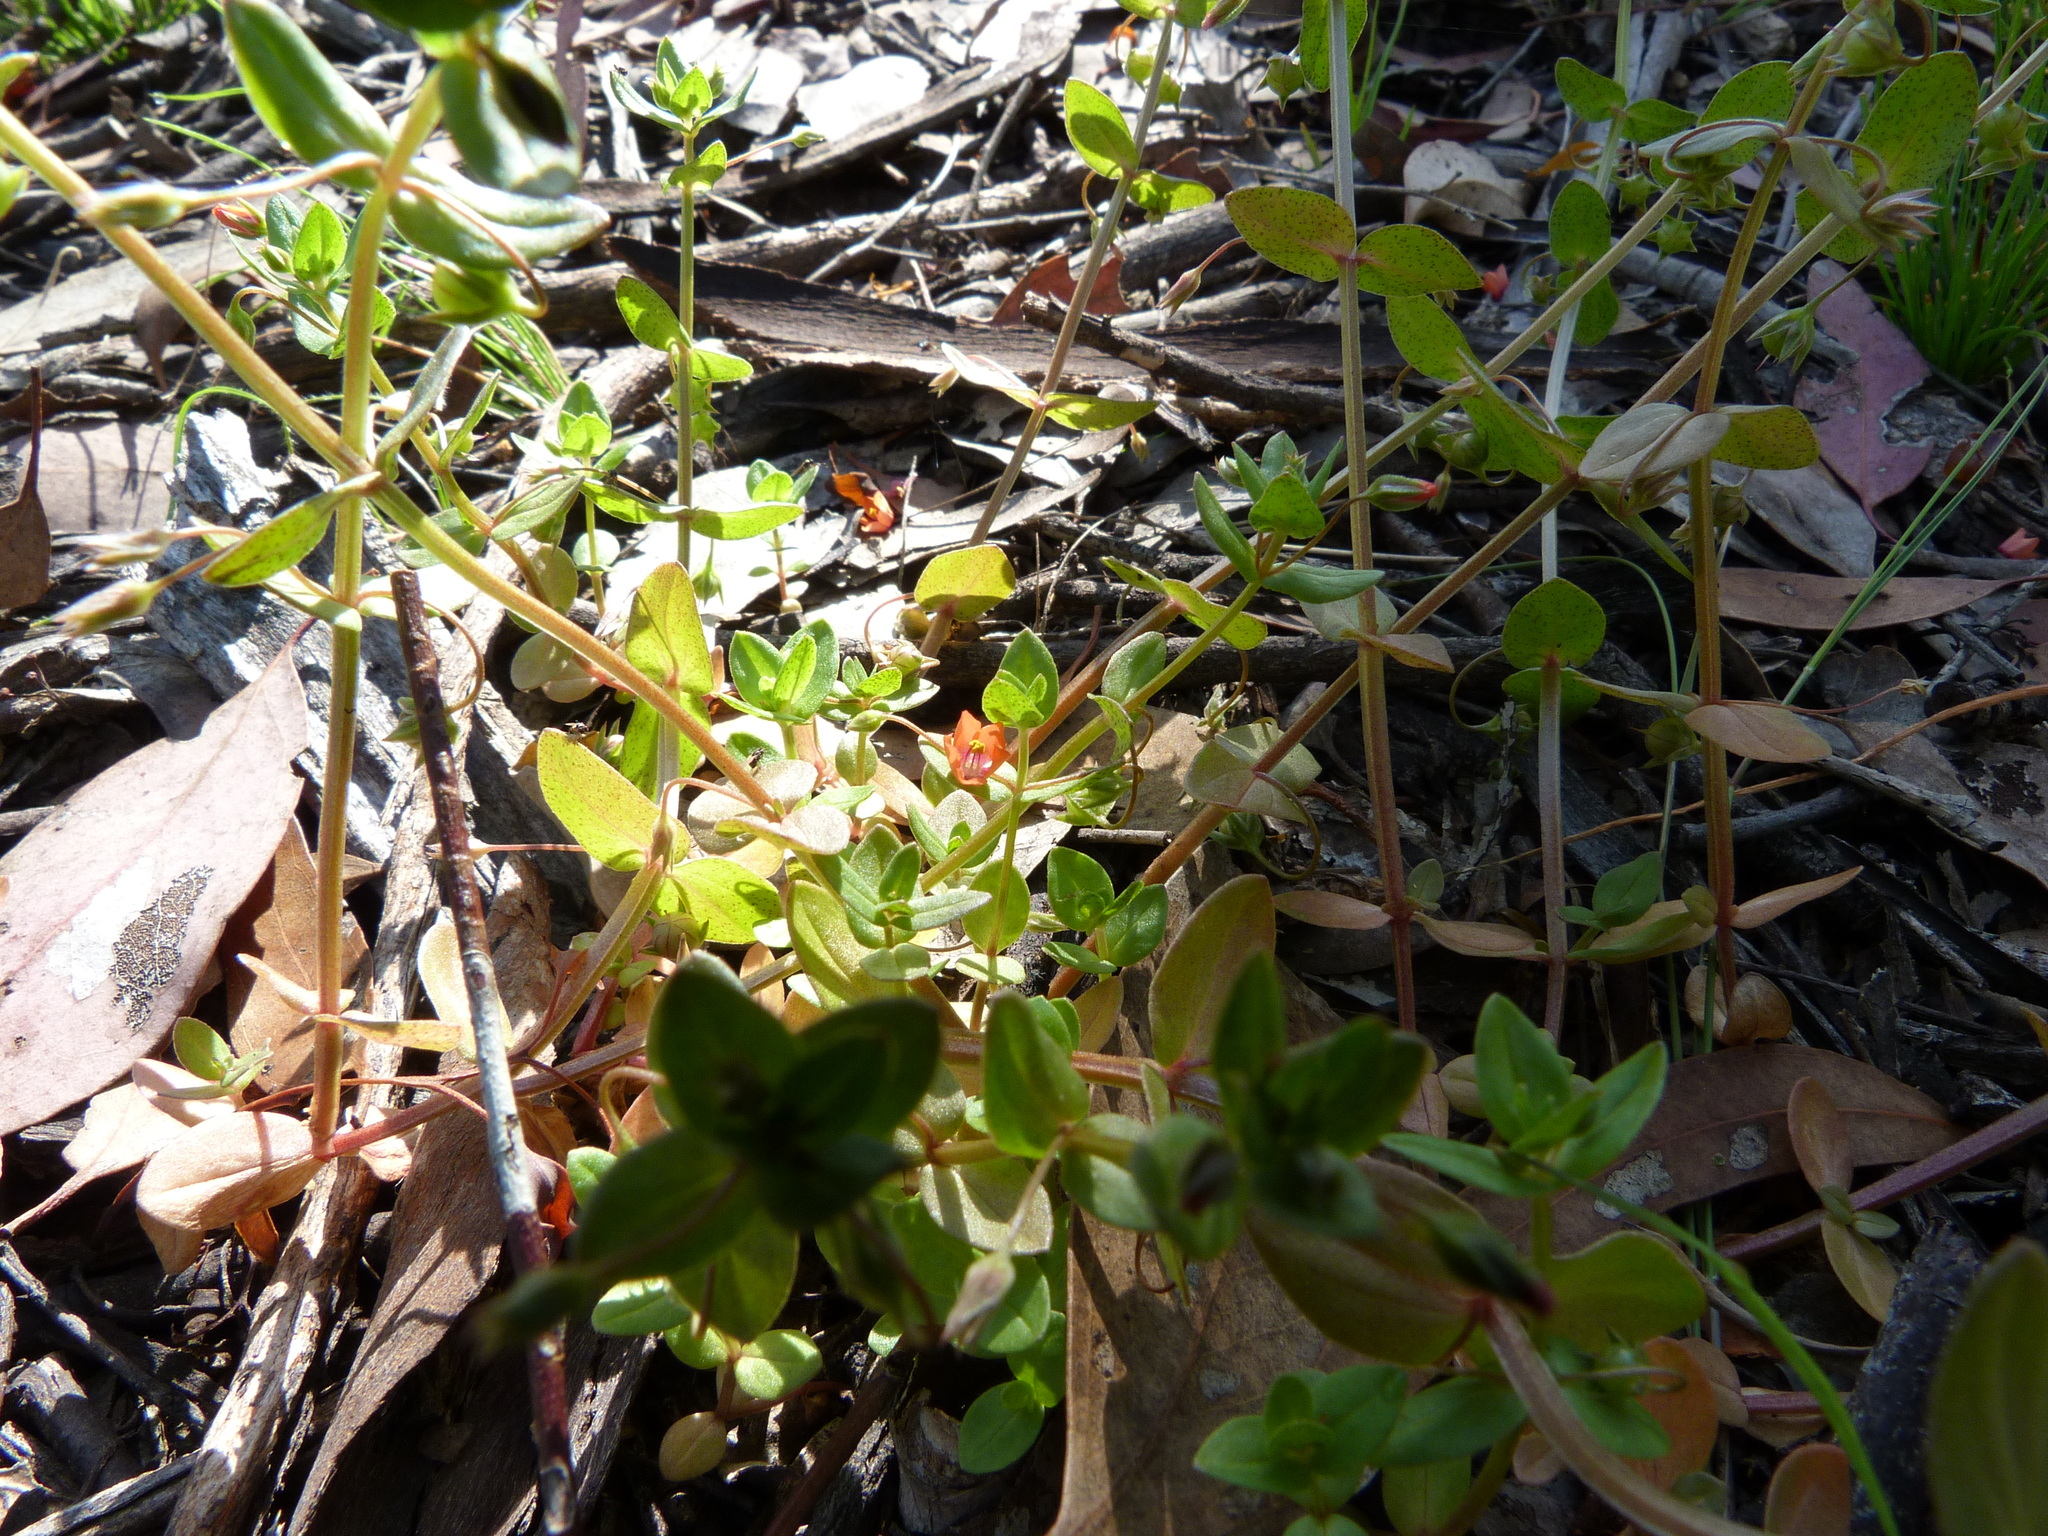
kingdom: Plantae
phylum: Tracheophyta
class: Magnoliopsida
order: Ericales
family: Primulaceae
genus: Lysimachia
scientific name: Lysimachia arvensis
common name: Scarlet pimpernel
